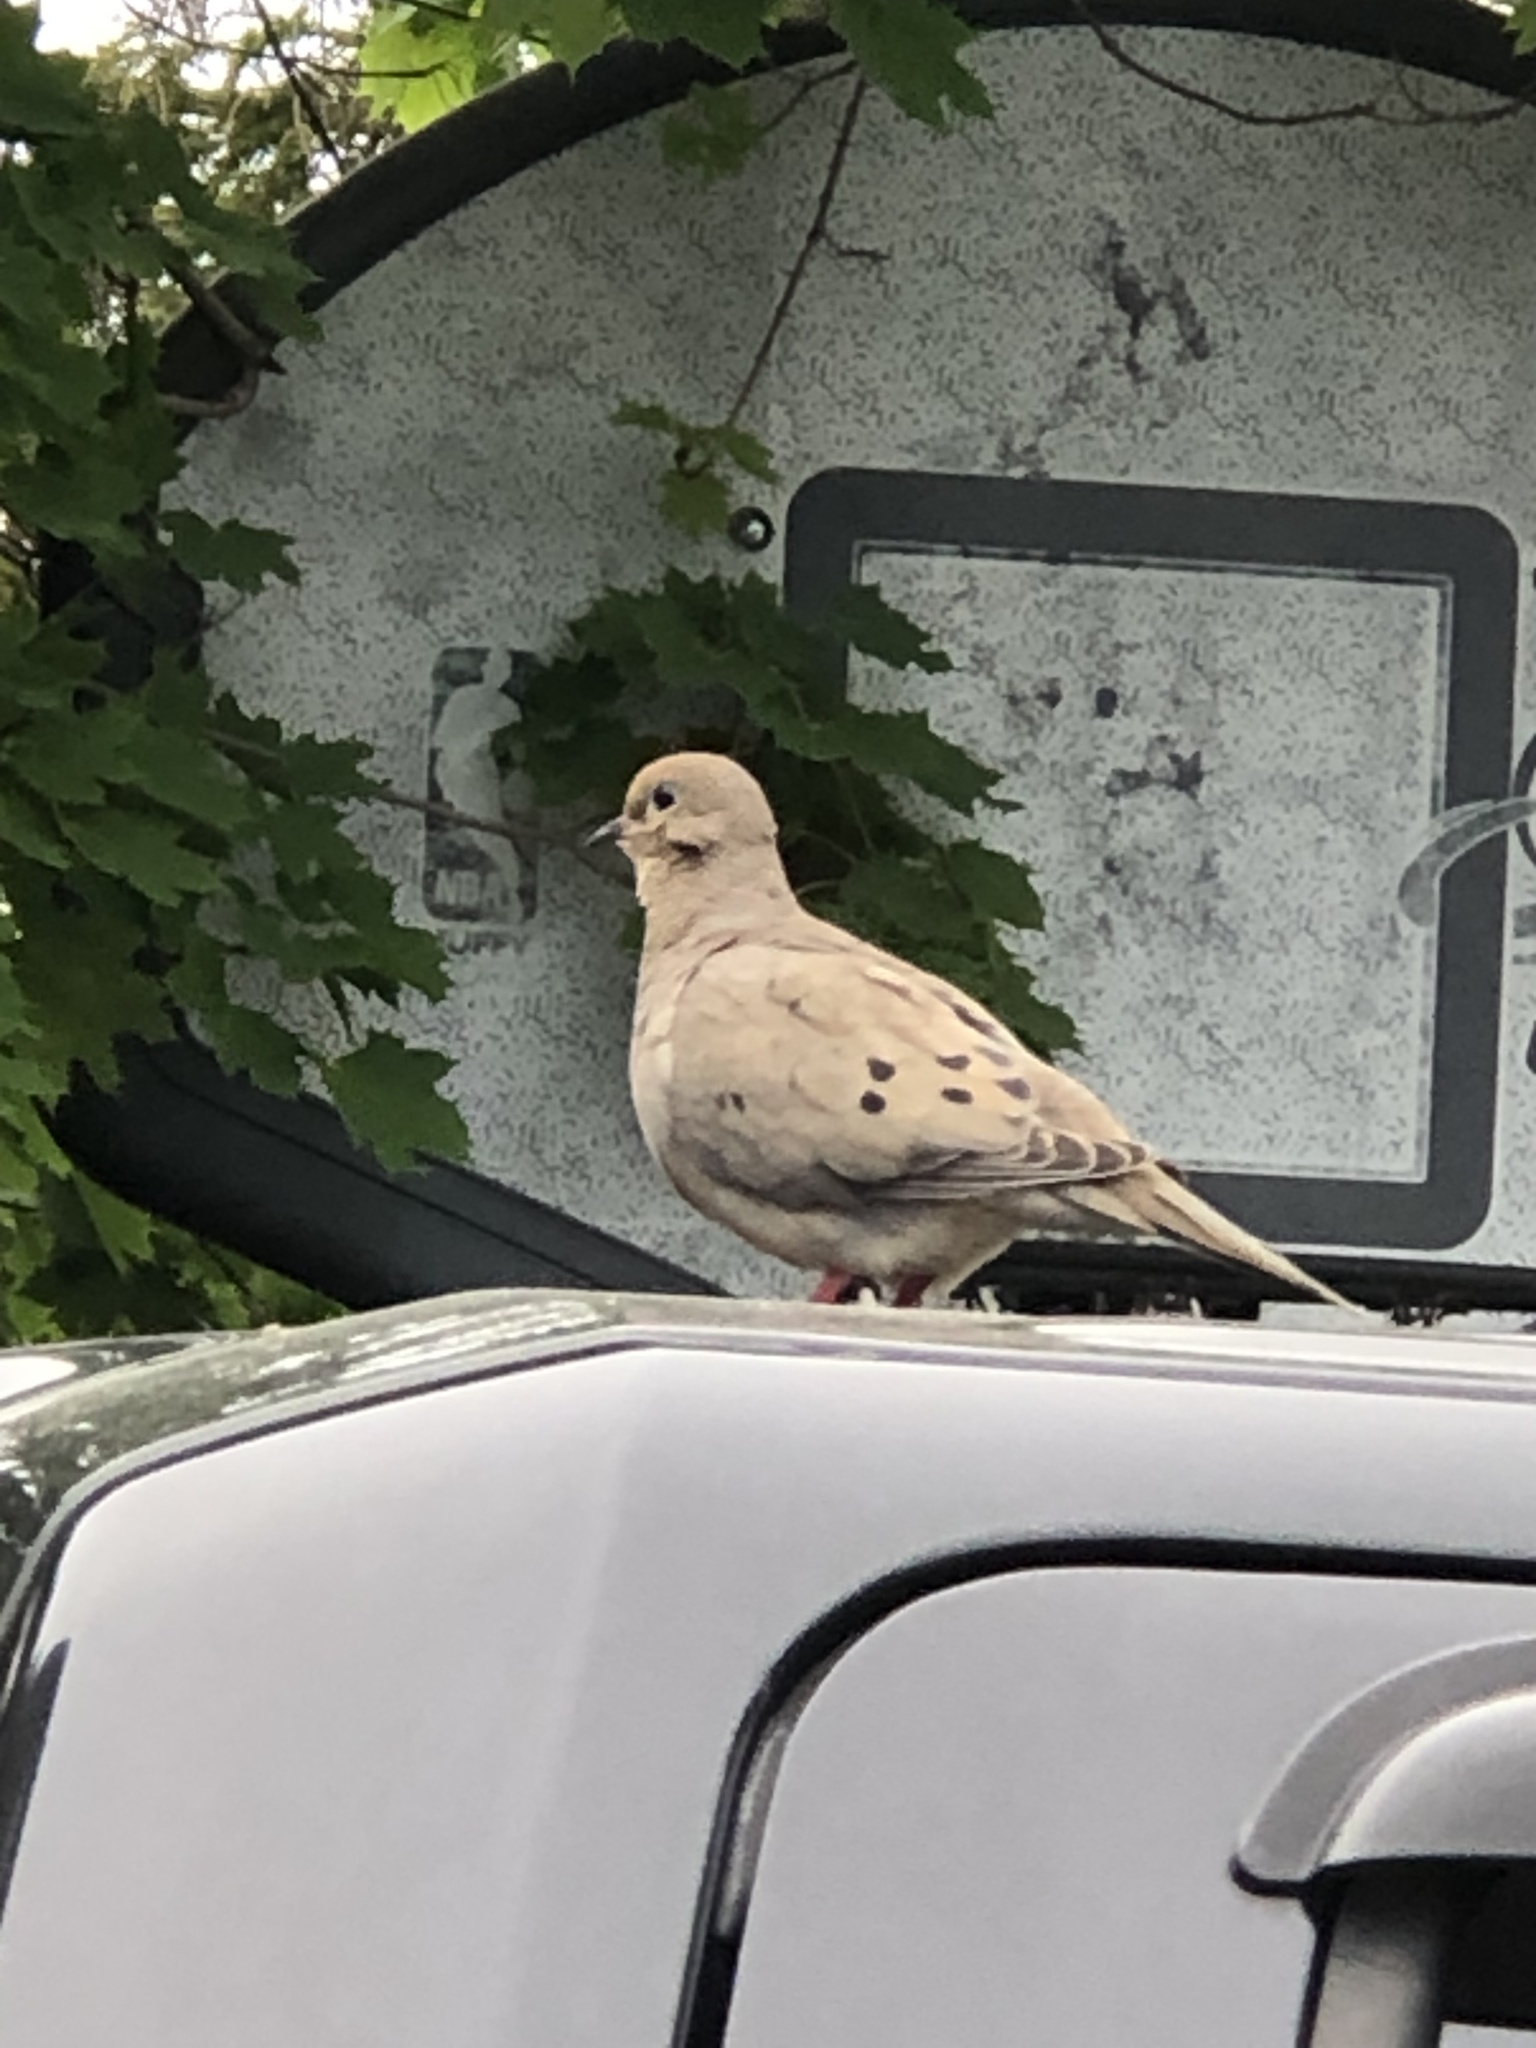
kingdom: Animalia
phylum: Chordata
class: Aves
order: Columbiformes
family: Columbidae
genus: Zenaida
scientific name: Zenaida macroura
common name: Mourning dove
